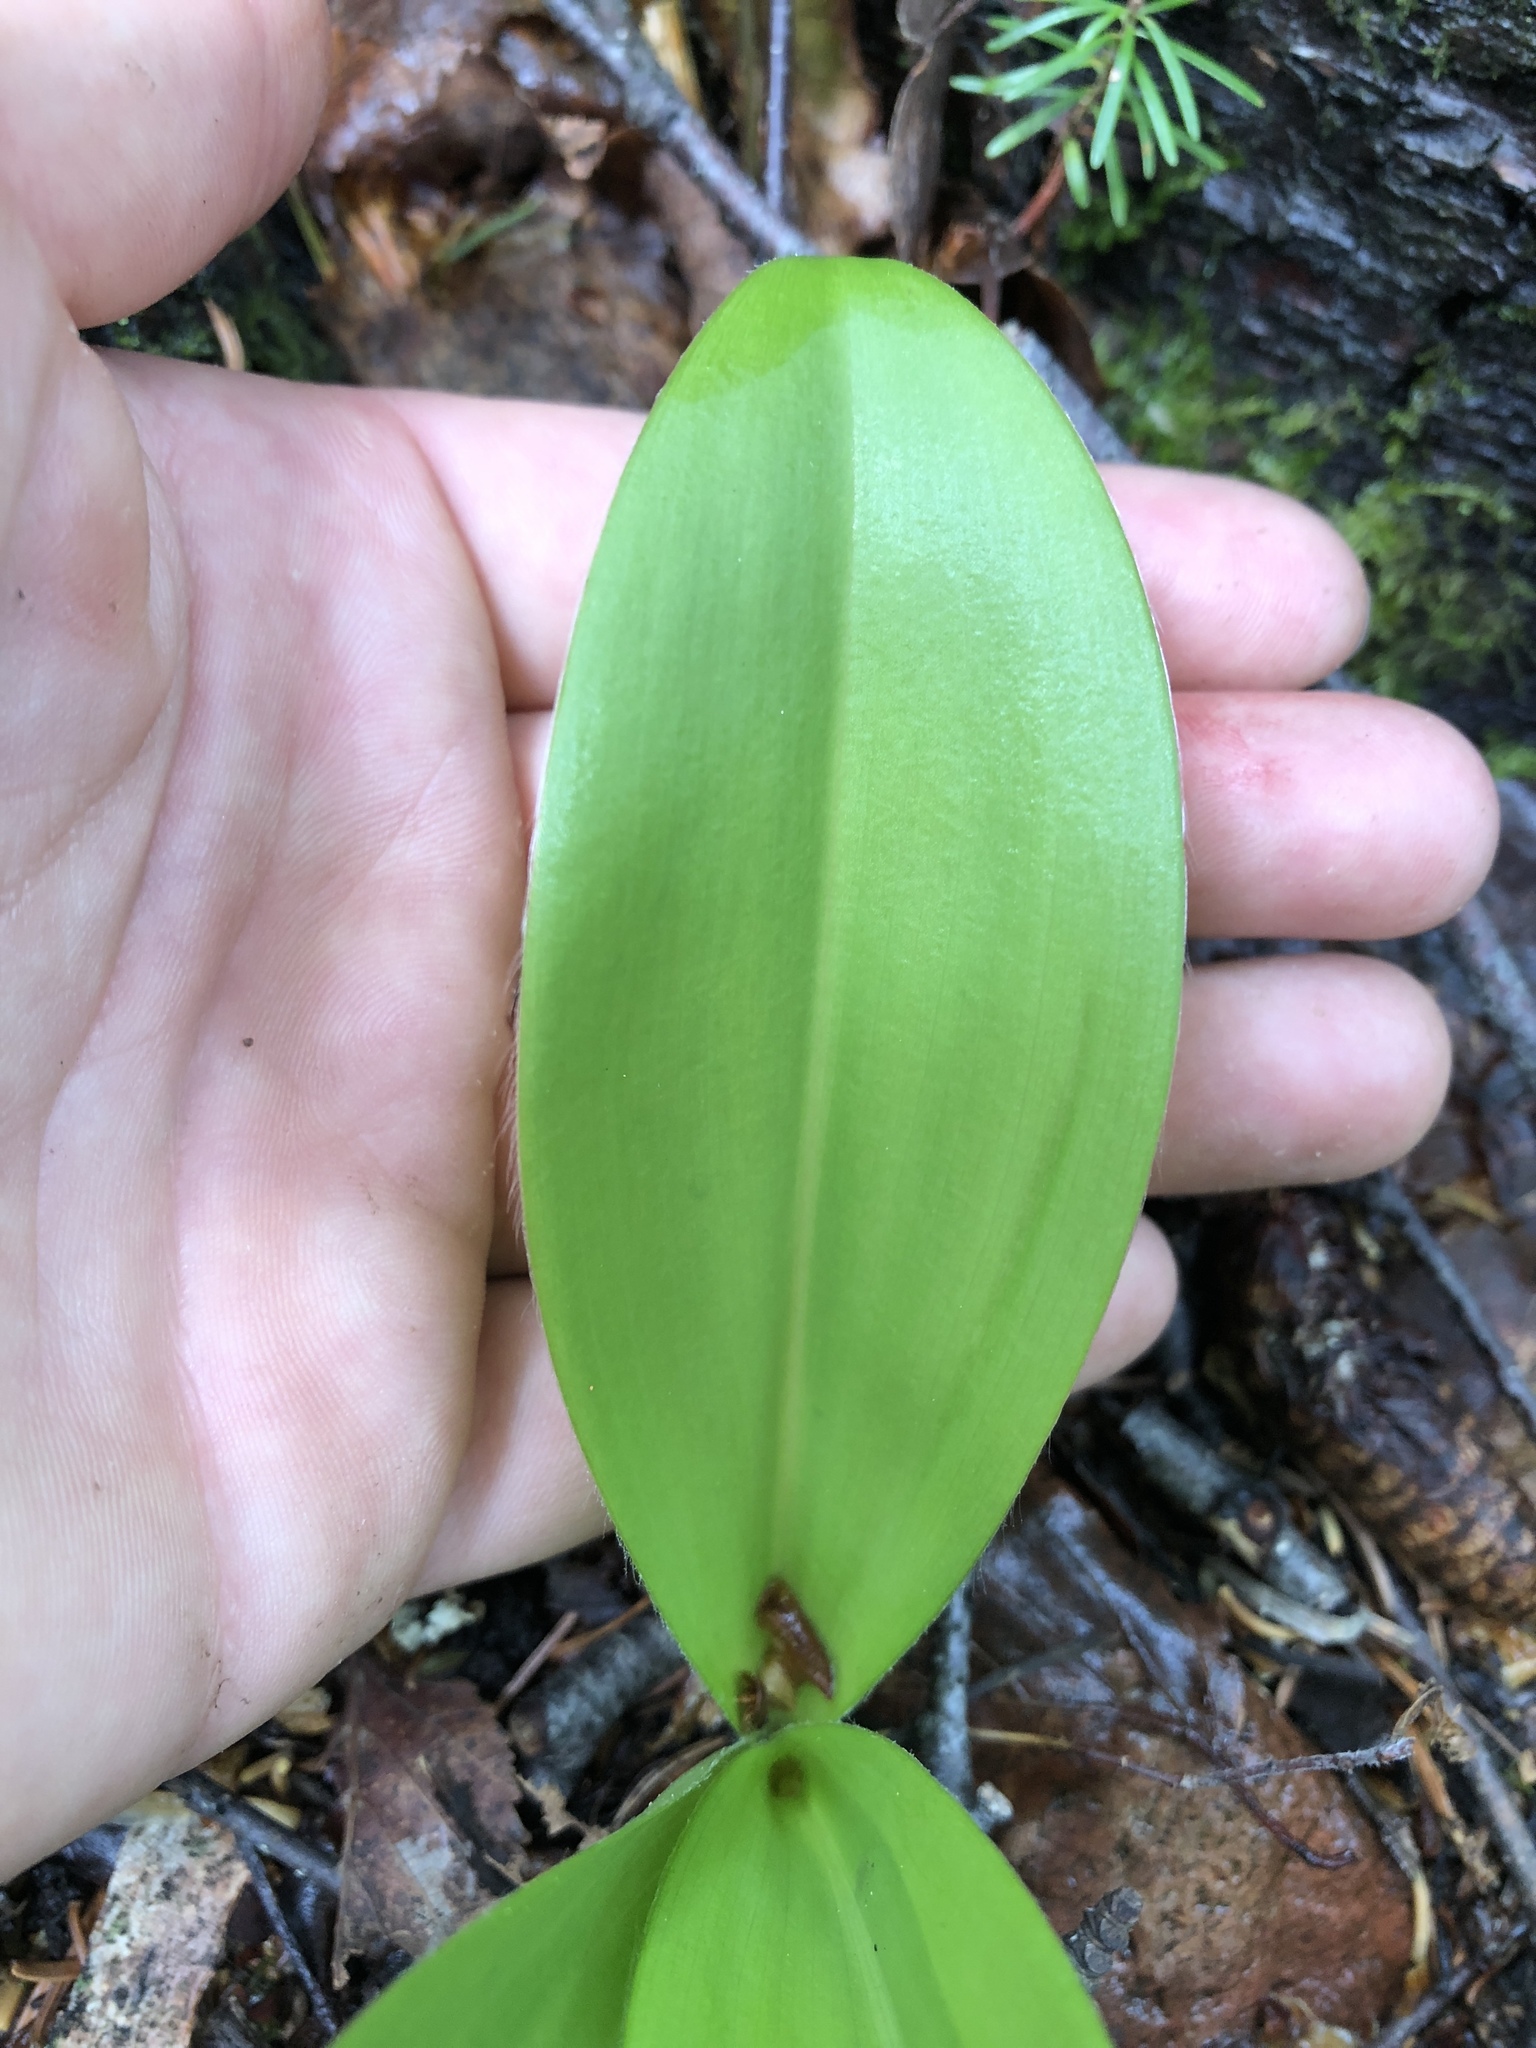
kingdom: Plantae
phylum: Tracheophyta
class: Liliopsida
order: Liliales
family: Liliaceae
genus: Clintonia
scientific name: Clintonia borealis
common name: Yellow clintonia
